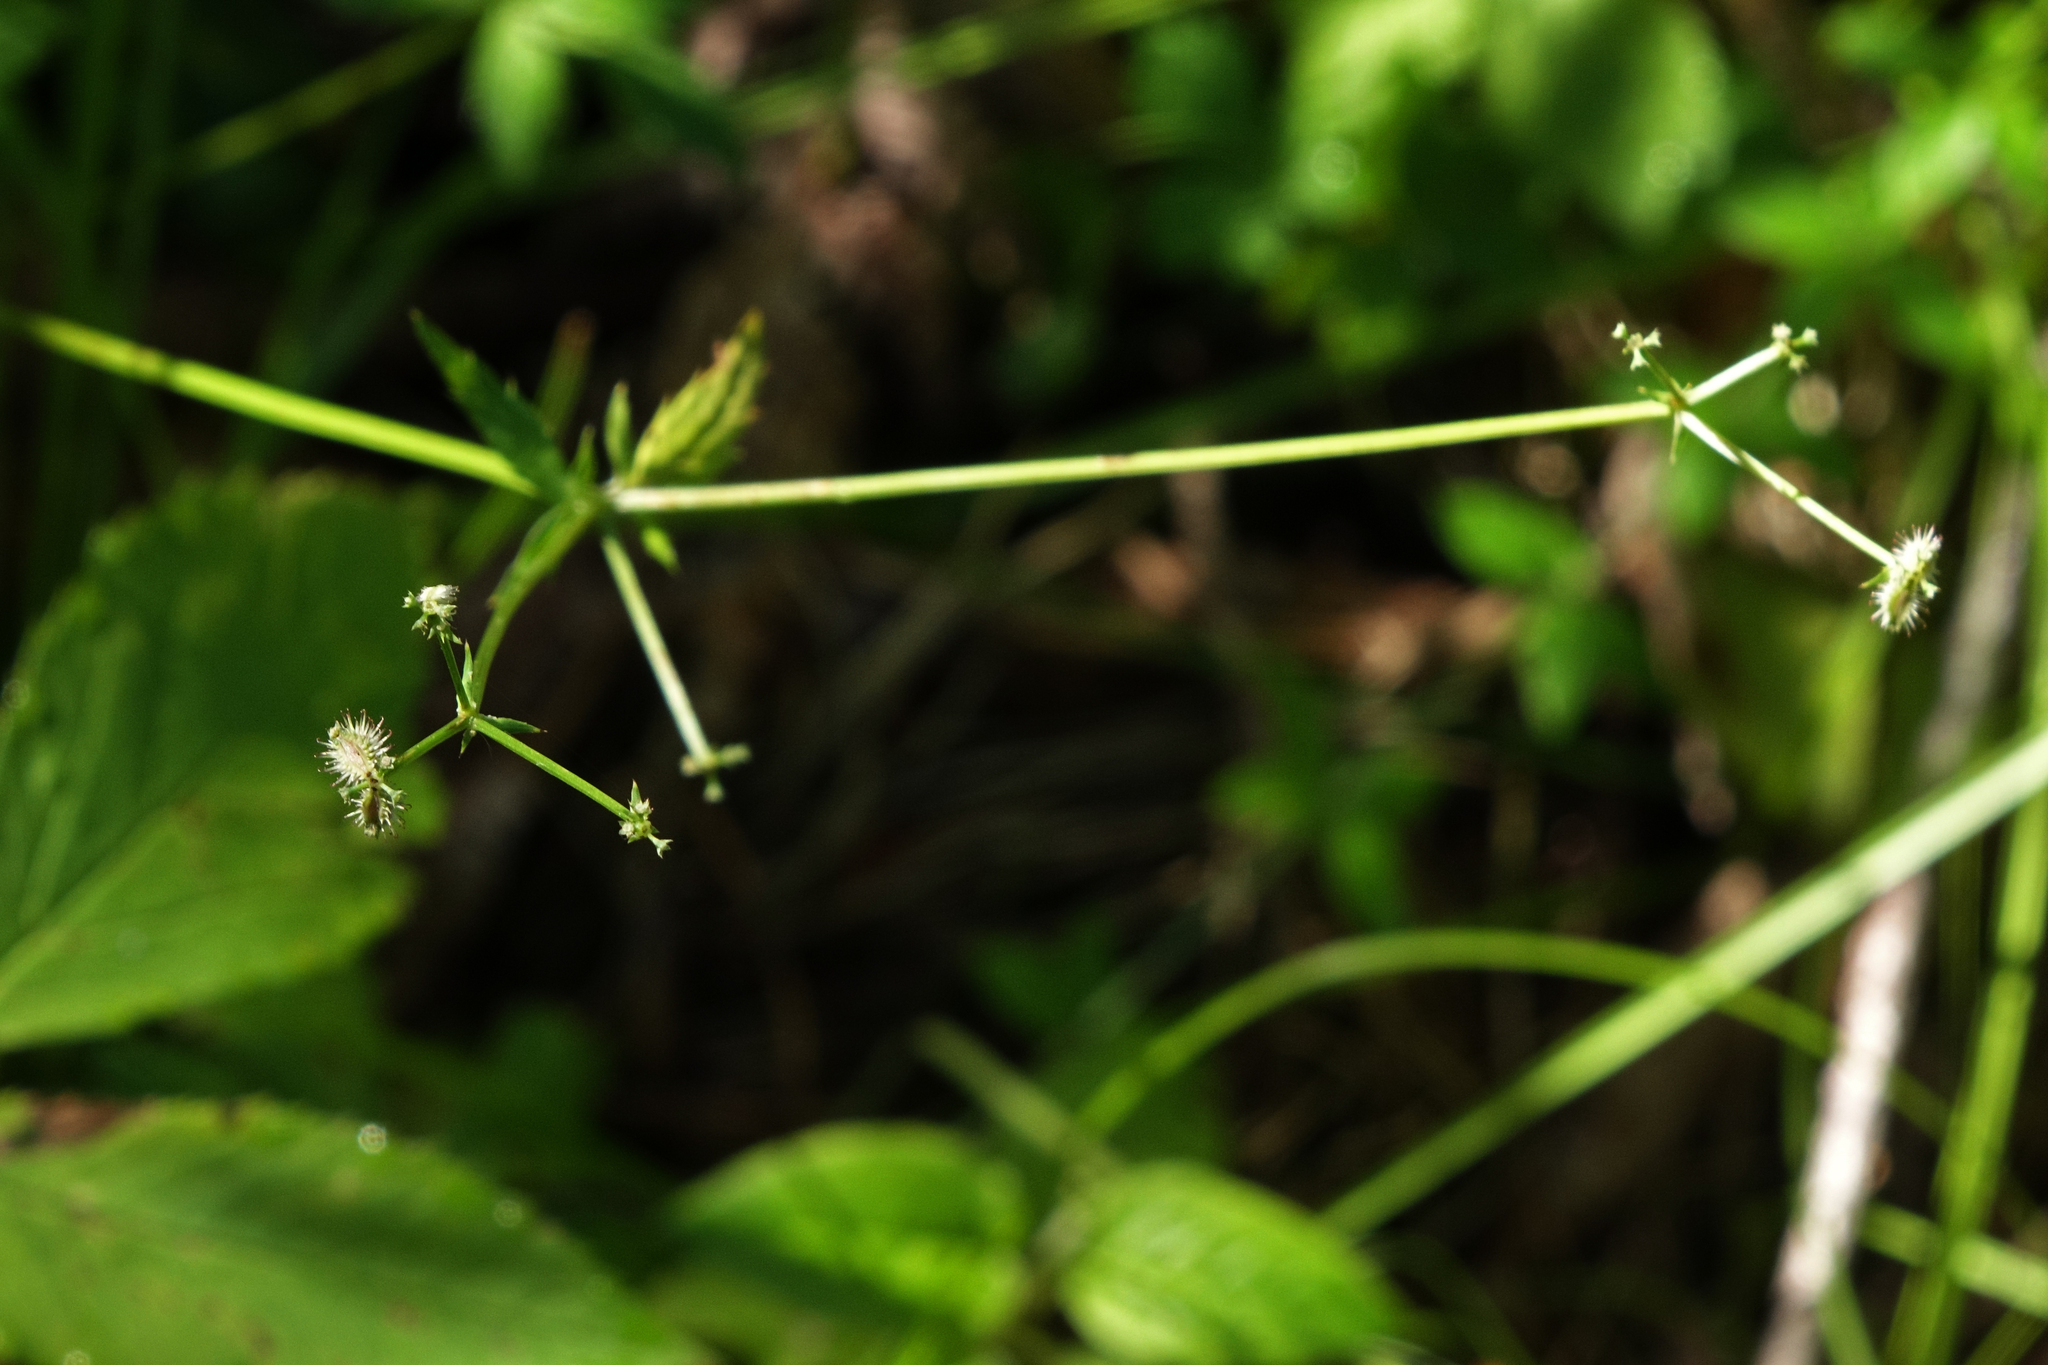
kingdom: Plantae
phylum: Tracheophyta
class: Magnoliopsida
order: Apiales
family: Apiaceae
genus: Sanicula
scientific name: Sanicula europaea
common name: Sanicle
